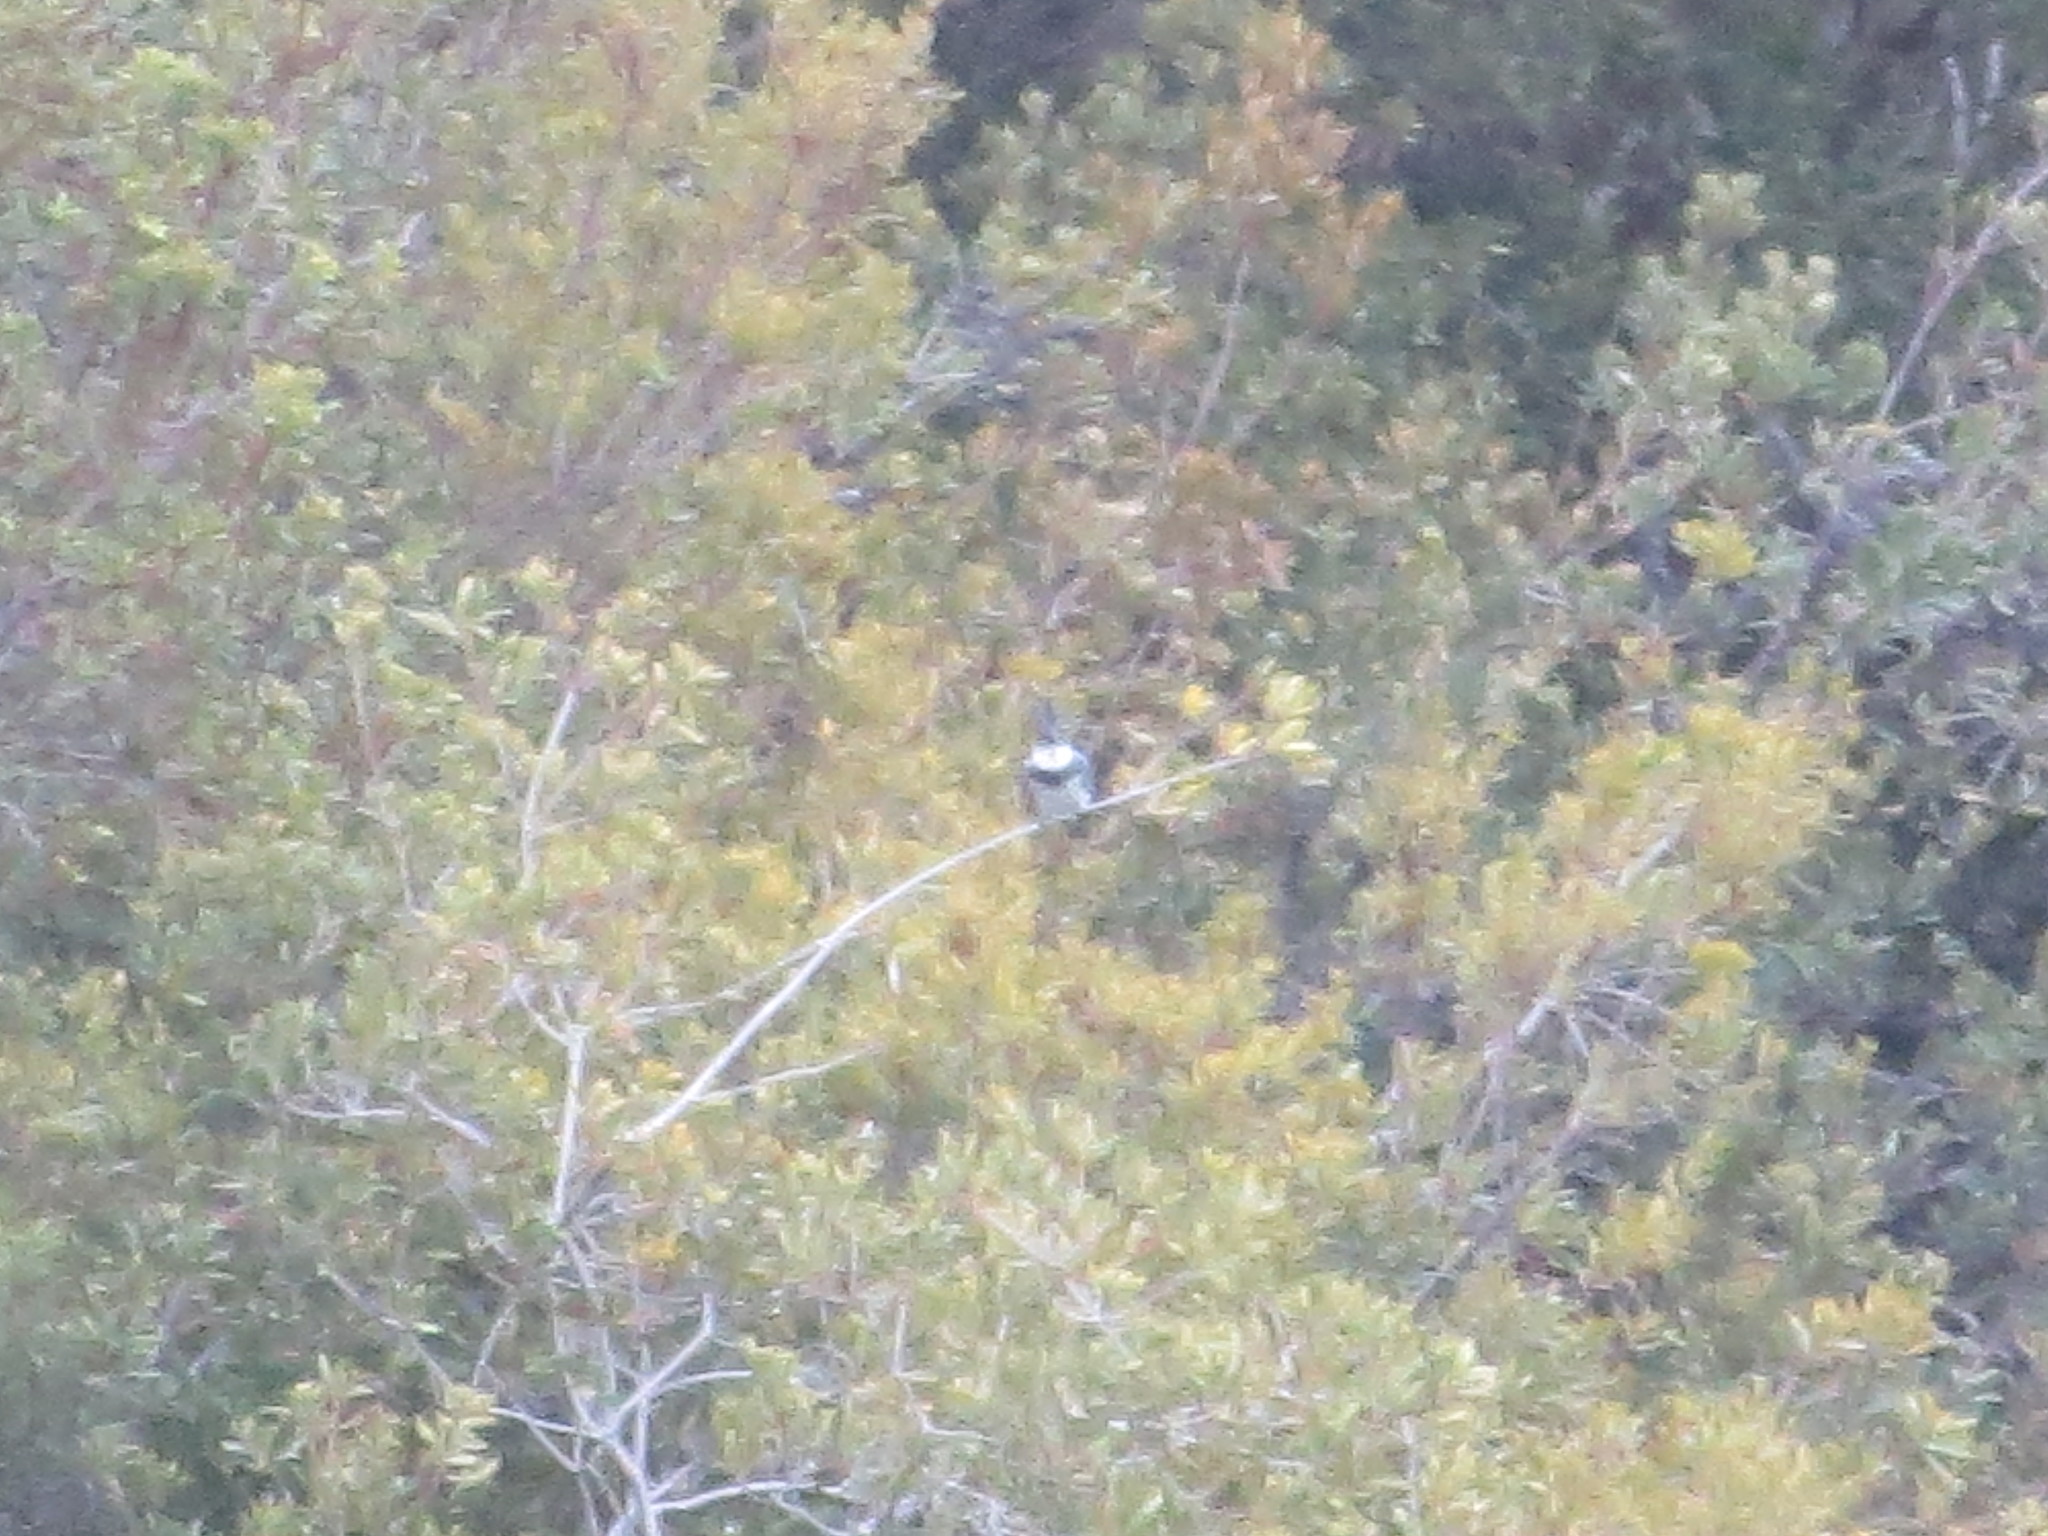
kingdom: Animalia
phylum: Chordata
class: Aves
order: Coraciiformes
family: Alcedinidae
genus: Megaceryle
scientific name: Megaceryle alcyon
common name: Belted kingfisher
